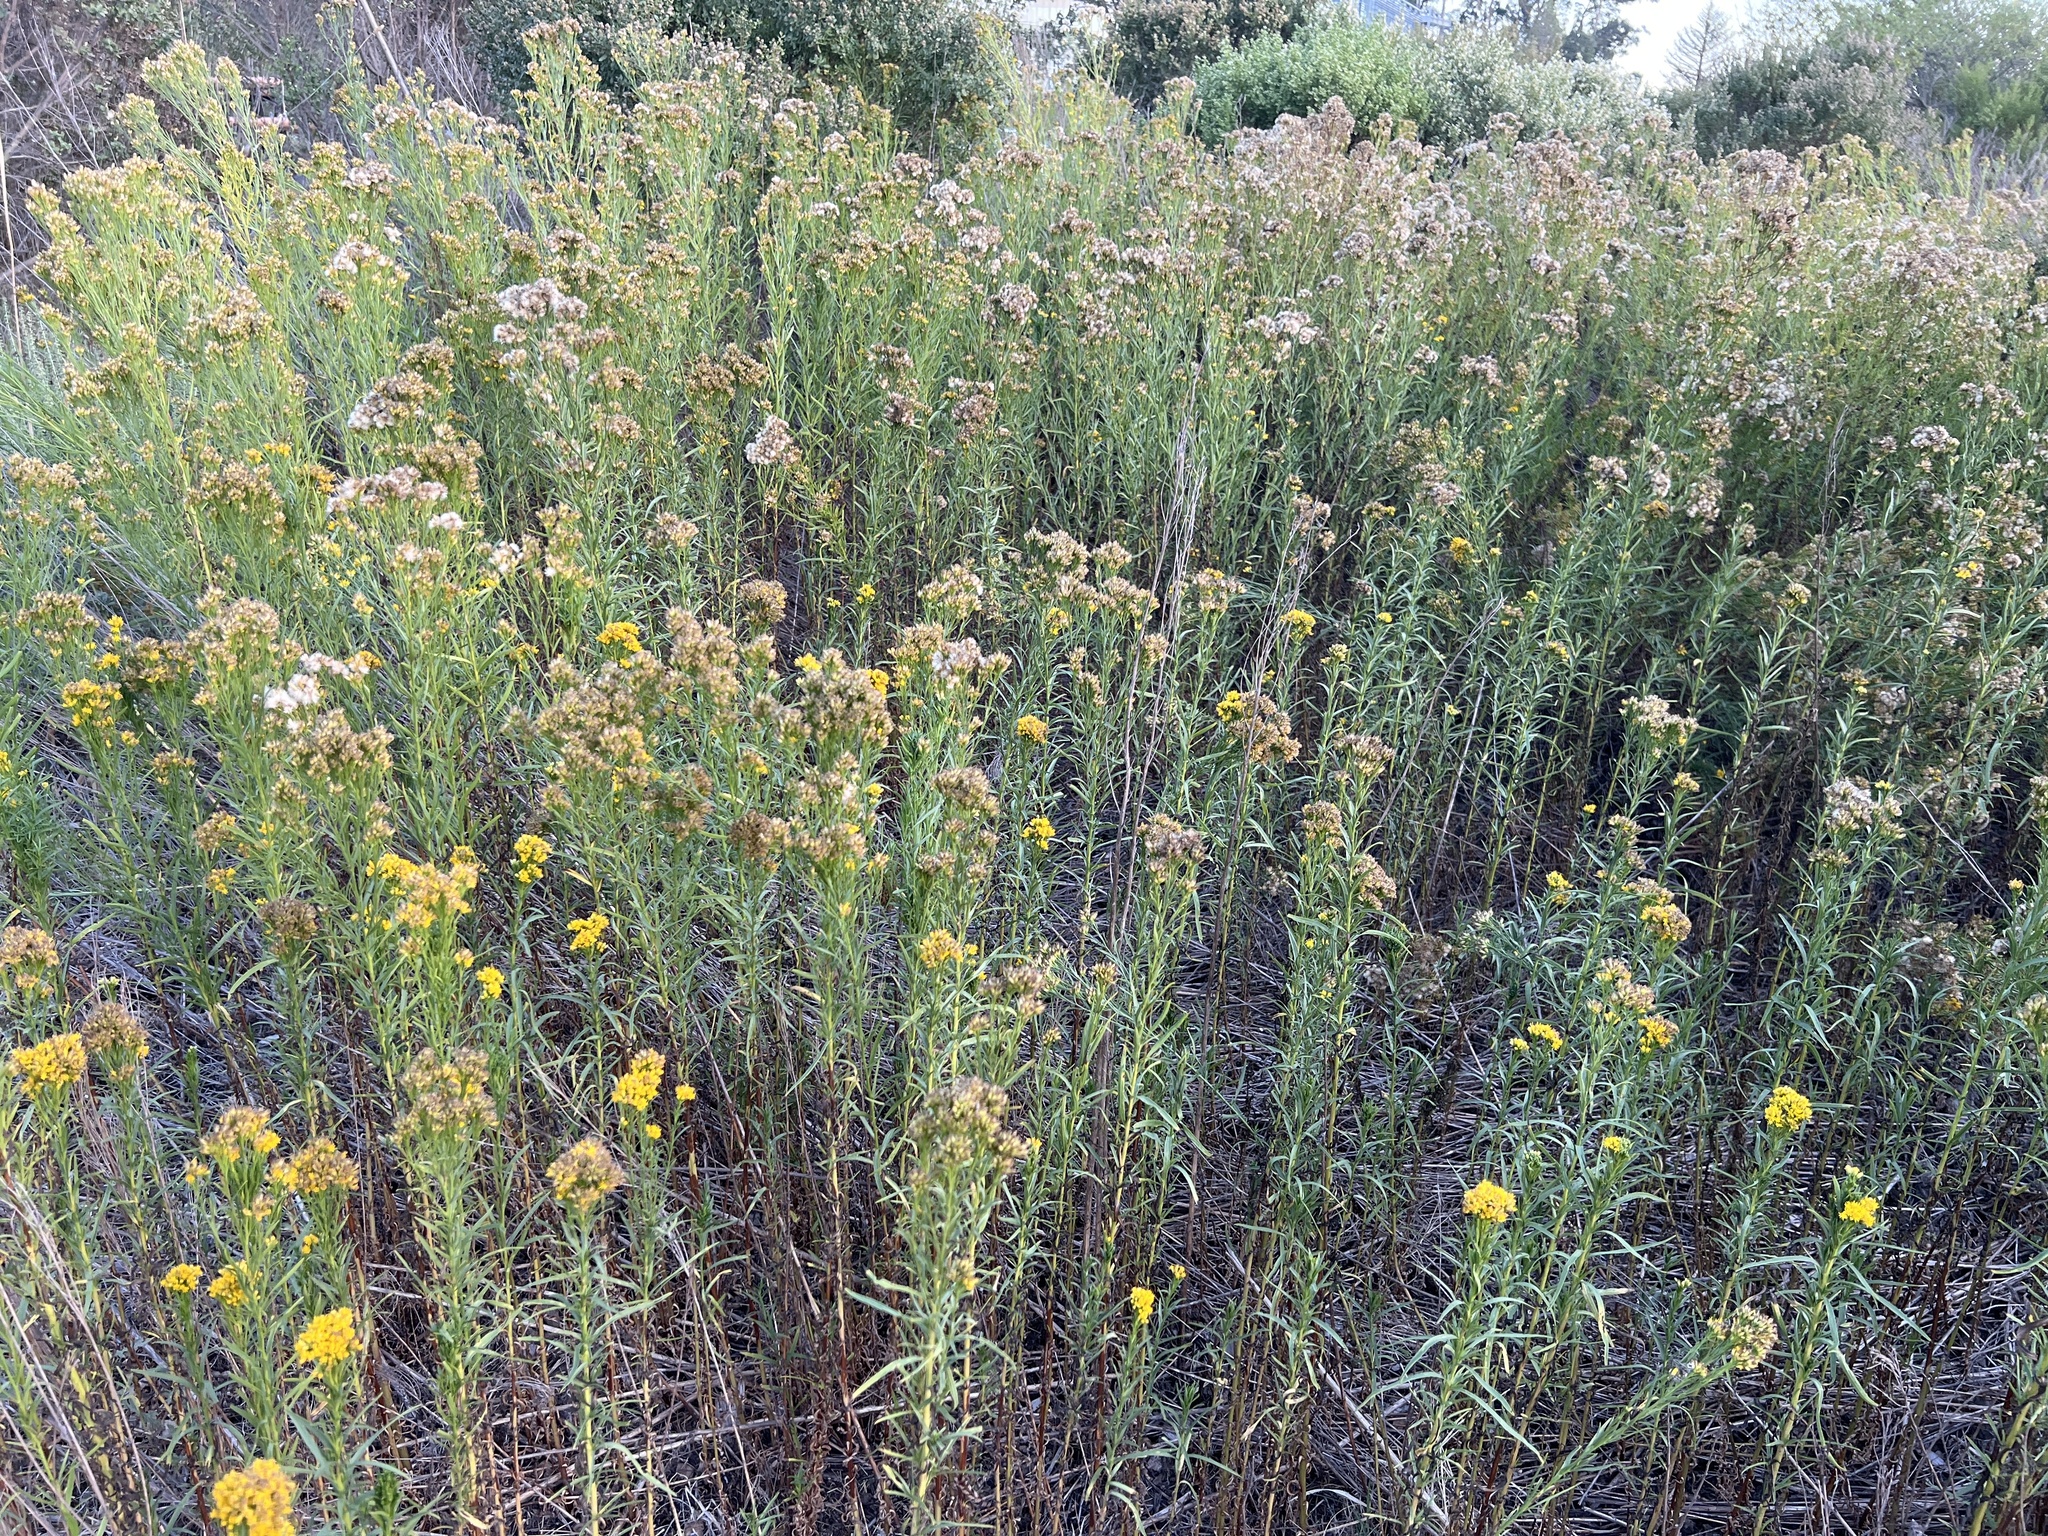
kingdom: Plantae
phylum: Tracheophyta
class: Magnoliopsida
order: Asterales
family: Asteraceae
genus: Euthamia
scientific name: Euthamia occidentalis
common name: Western goldentop
